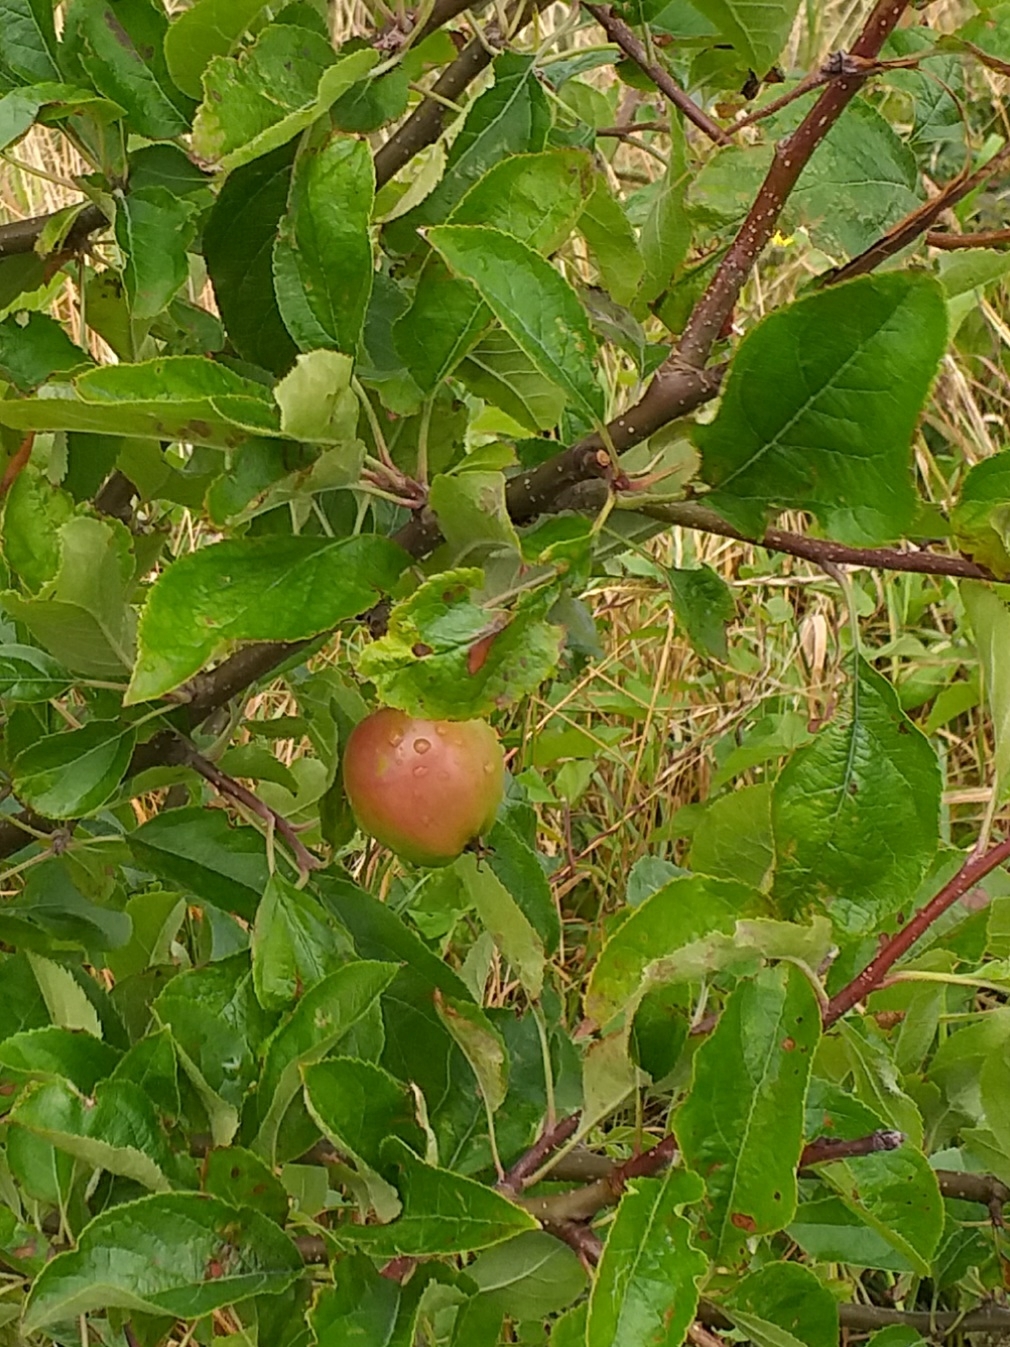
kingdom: Plantae
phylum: Tracheophyta
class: Magnoliopsida
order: Rosales
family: Rosaceae
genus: Malus
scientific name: Malus domestica
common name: Apple
